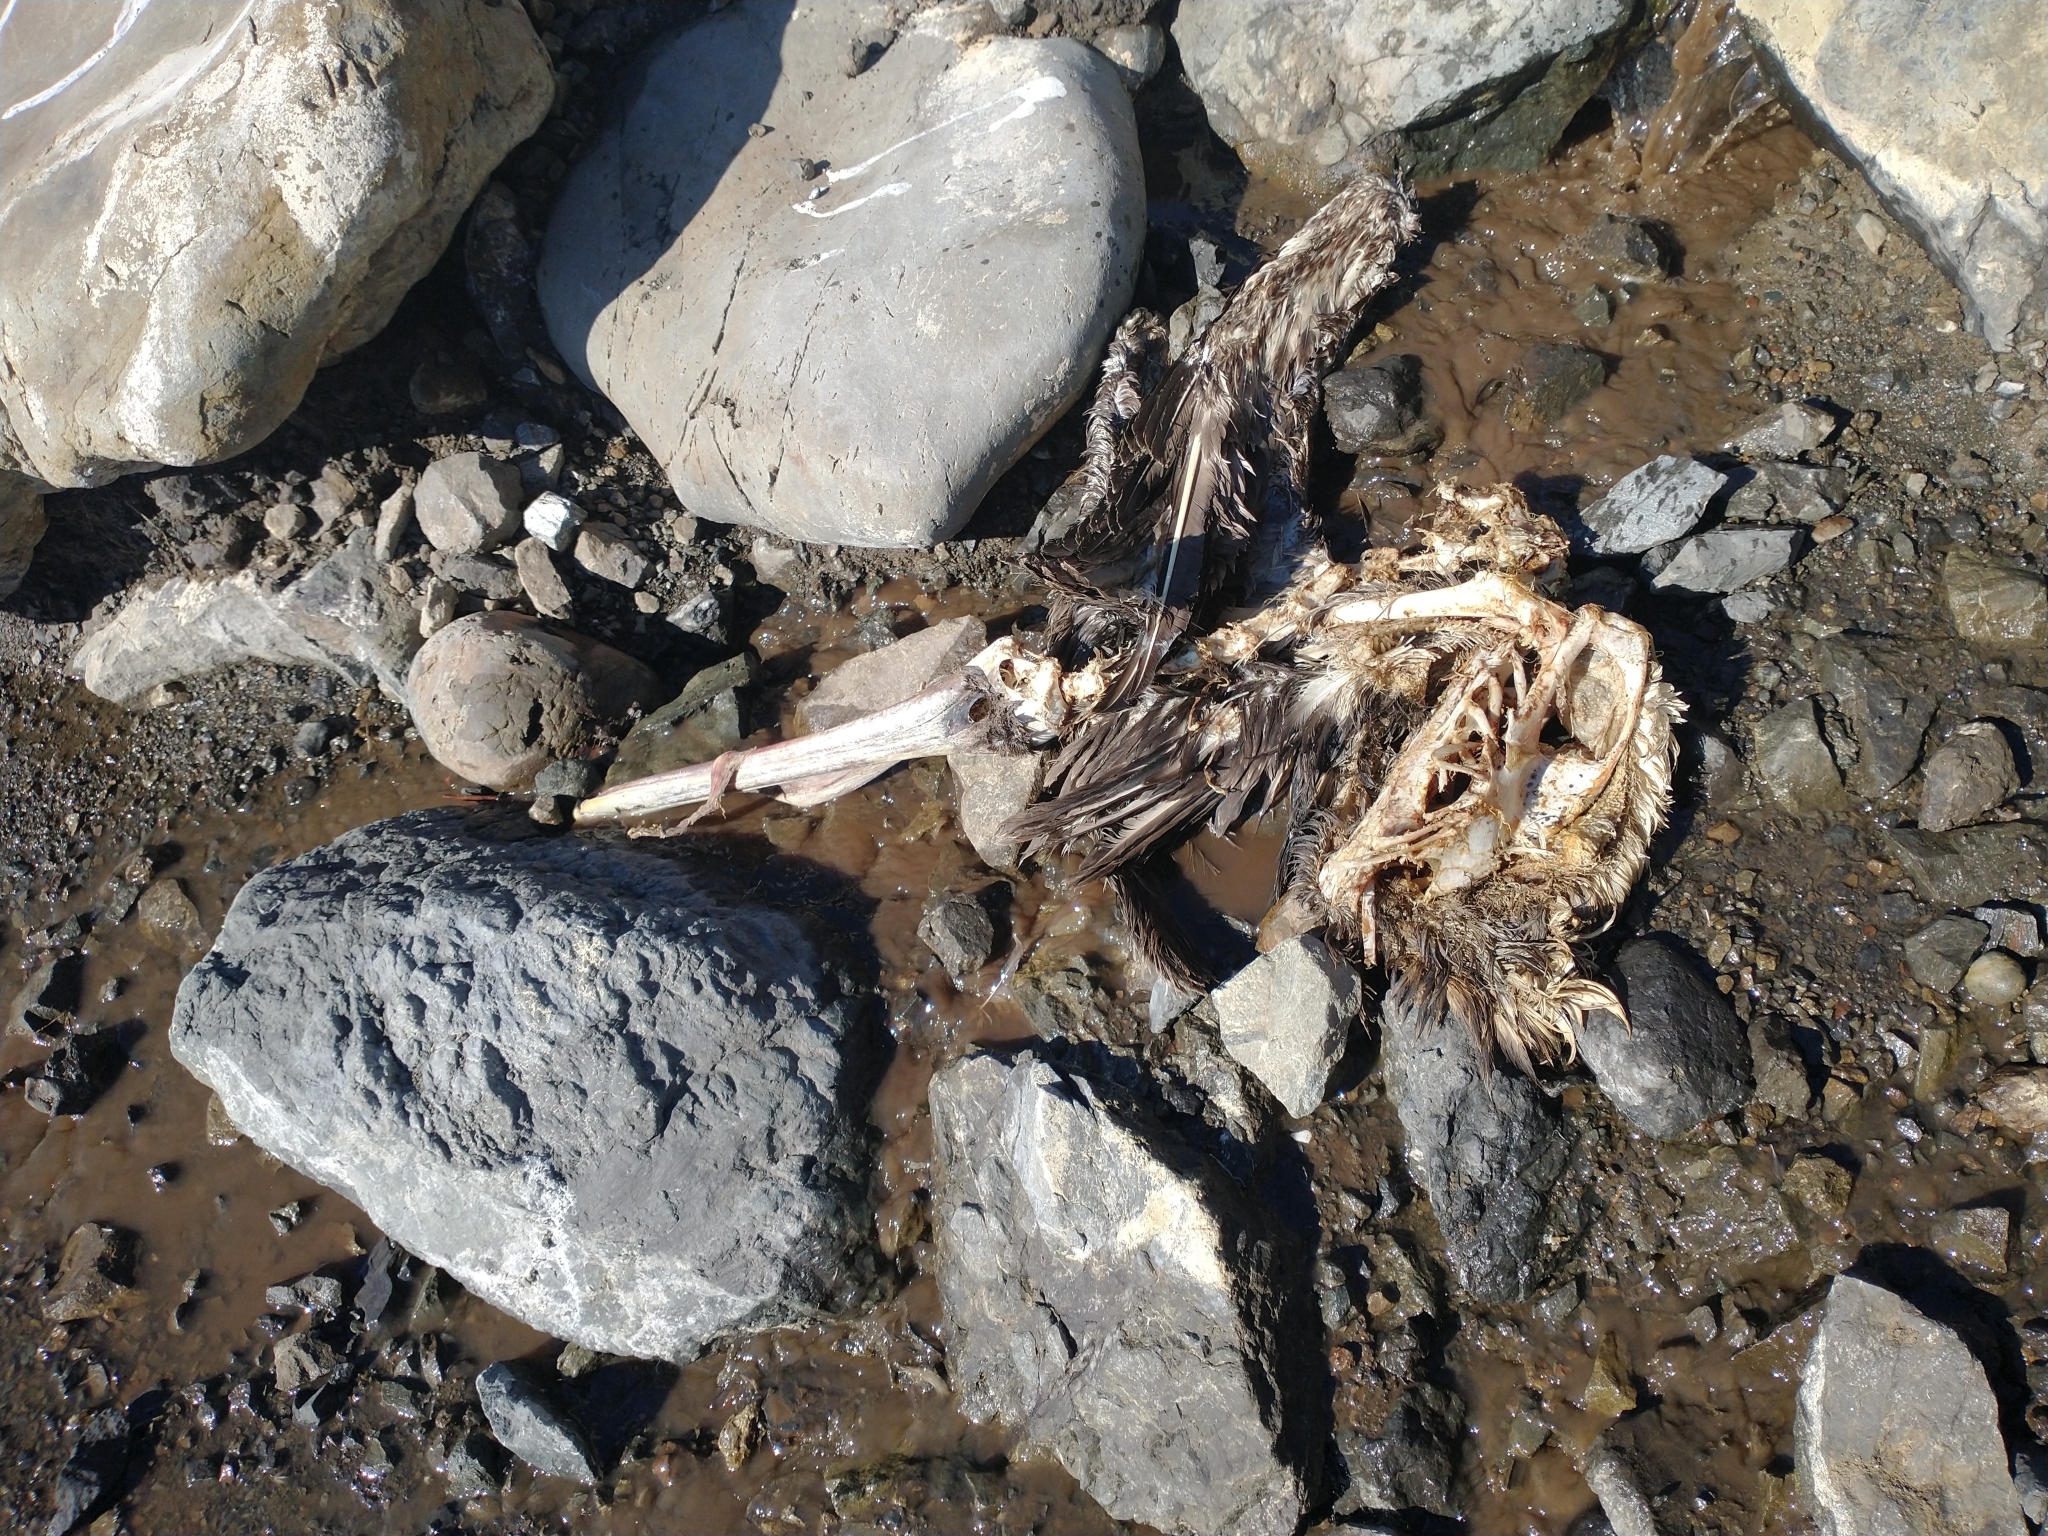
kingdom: Animalia
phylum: Chordata
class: Aves
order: Pelecaniformes
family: Pelecanidae
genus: Pelecanus
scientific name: Pelecanus occidentalis
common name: Brown pelican
